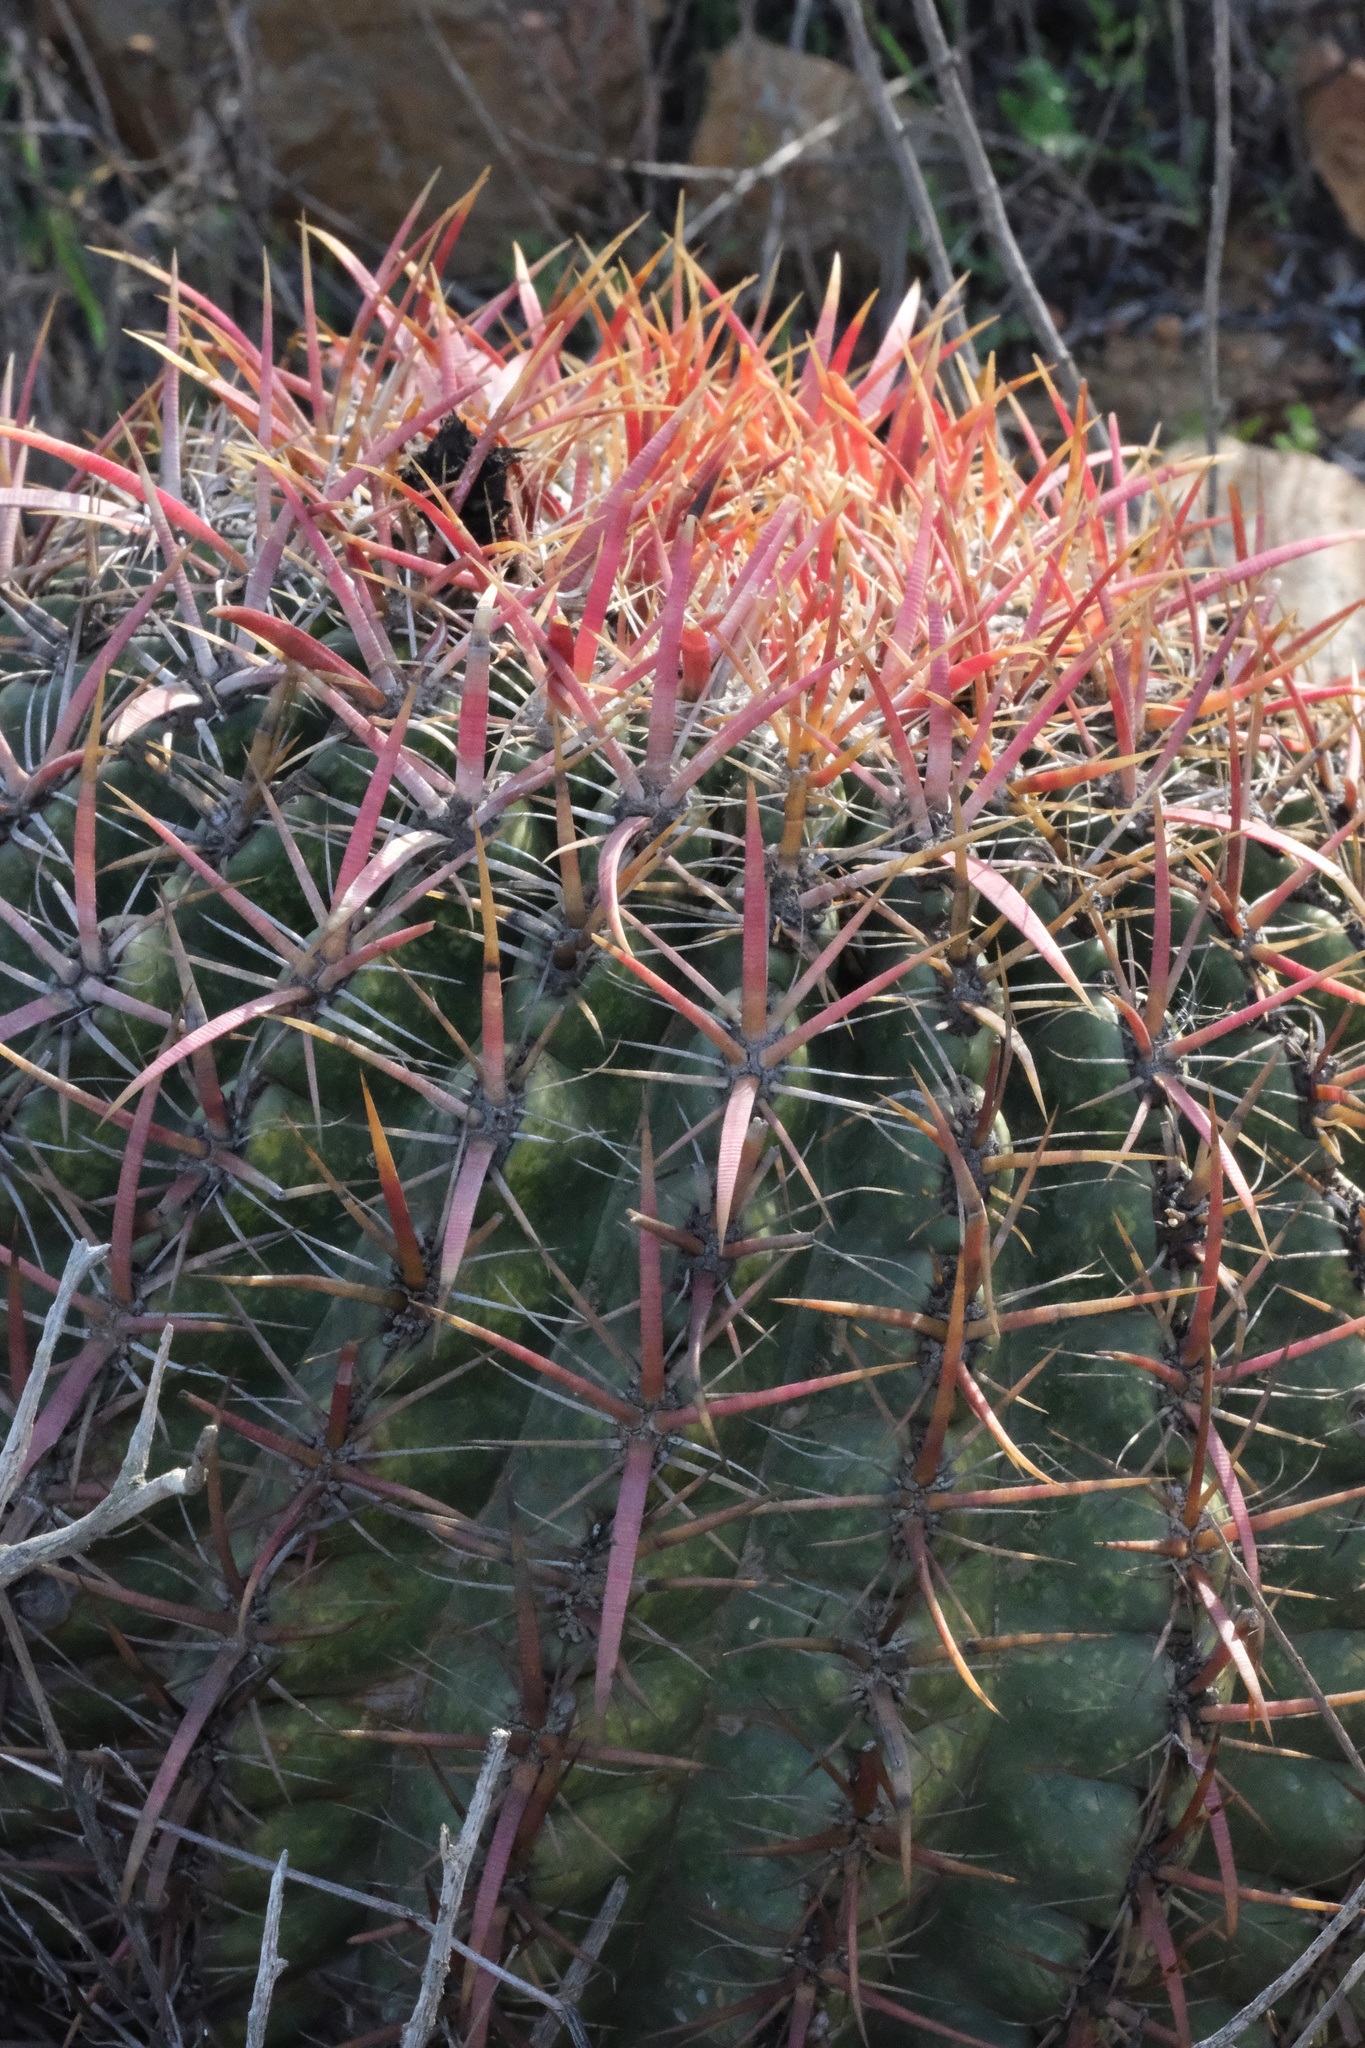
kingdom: Plantae
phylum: Tracheophyta
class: Magnoliopsida
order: Caryophyllales
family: Cactaceae
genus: Ferocactus
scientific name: Ferocactus viridescens
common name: San diego barrel cactus
